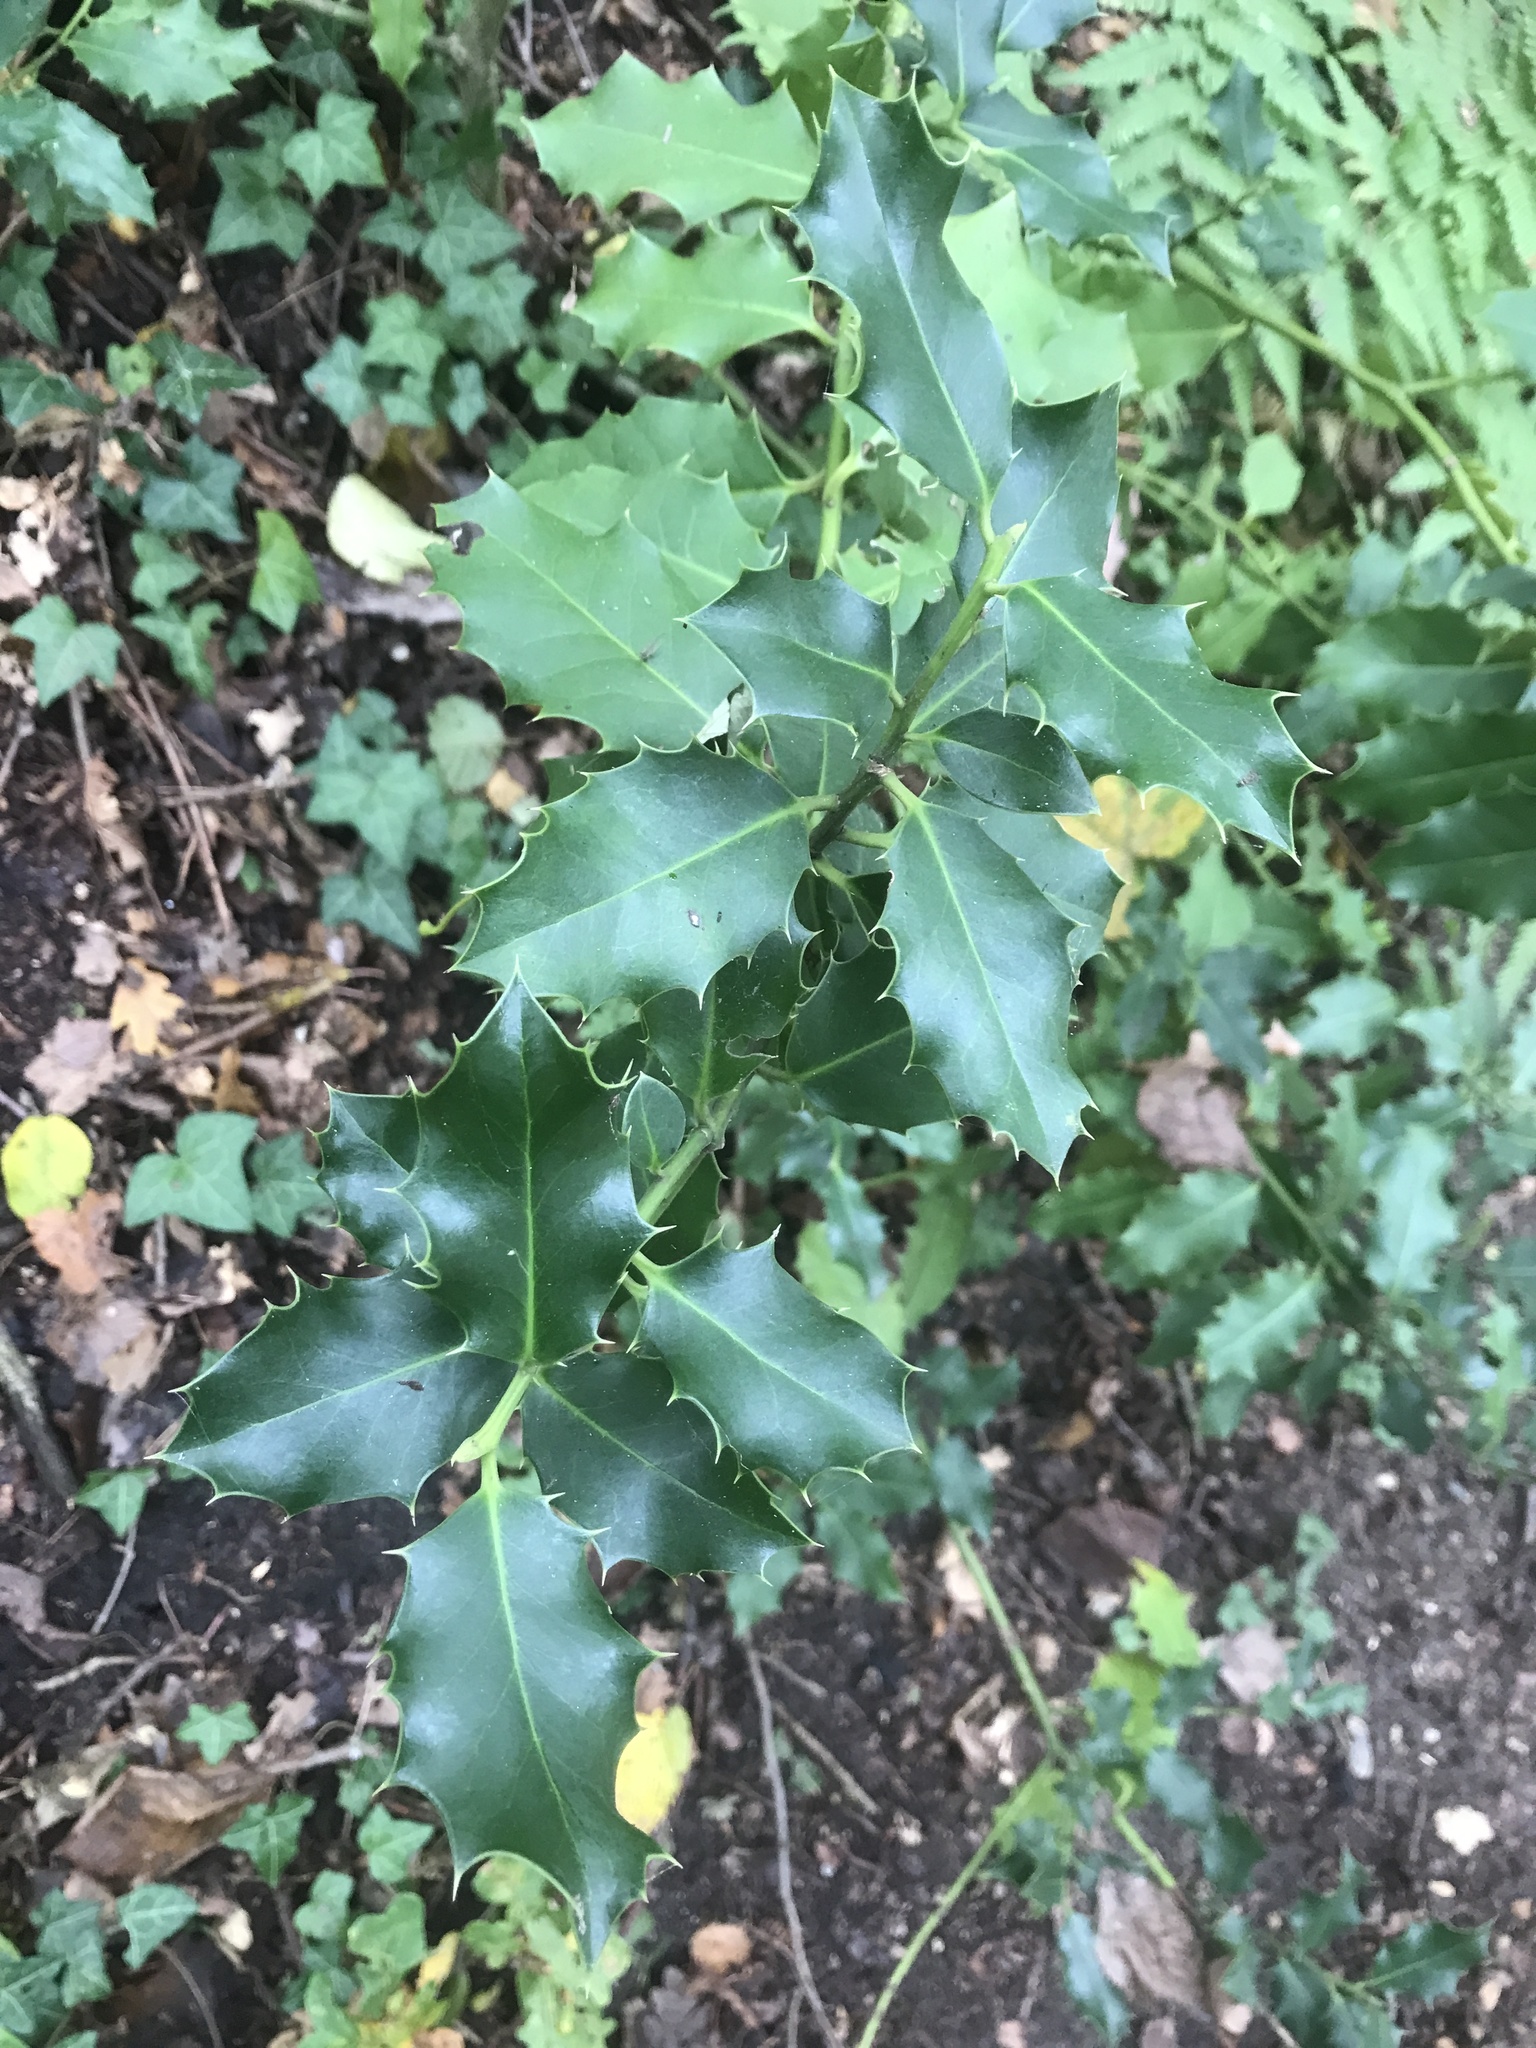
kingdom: Plantae
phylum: Tracheophyta
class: Magnoliopsida
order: Aquifoliales
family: Aquifoliaceae
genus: Ilex
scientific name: Ilex aquifolium
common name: English holly
